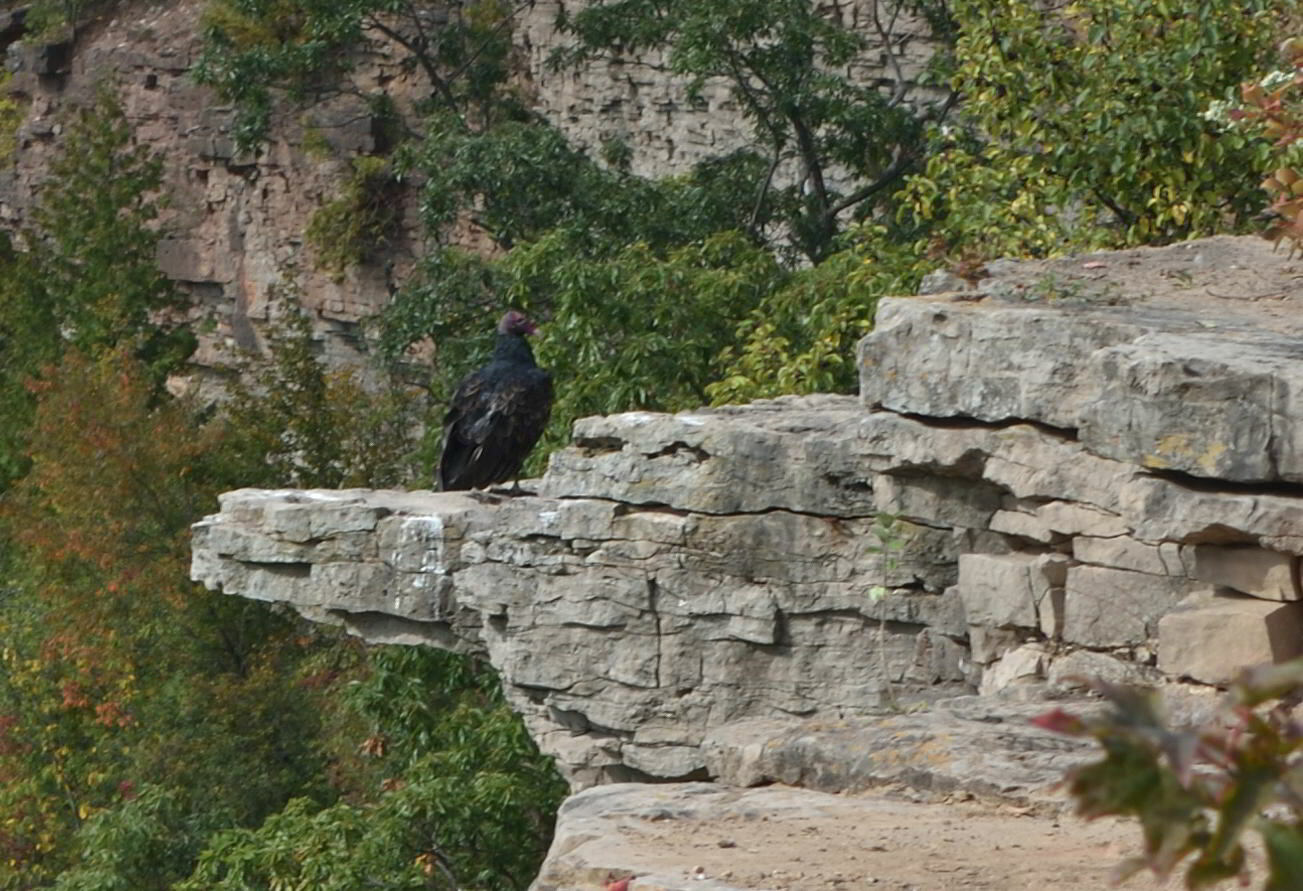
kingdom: Animalia
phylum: Chordata
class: Aves
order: Accipitriformes
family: Cathartidae
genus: Cathartes
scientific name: Cathartes aura
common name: Turkey vulture
